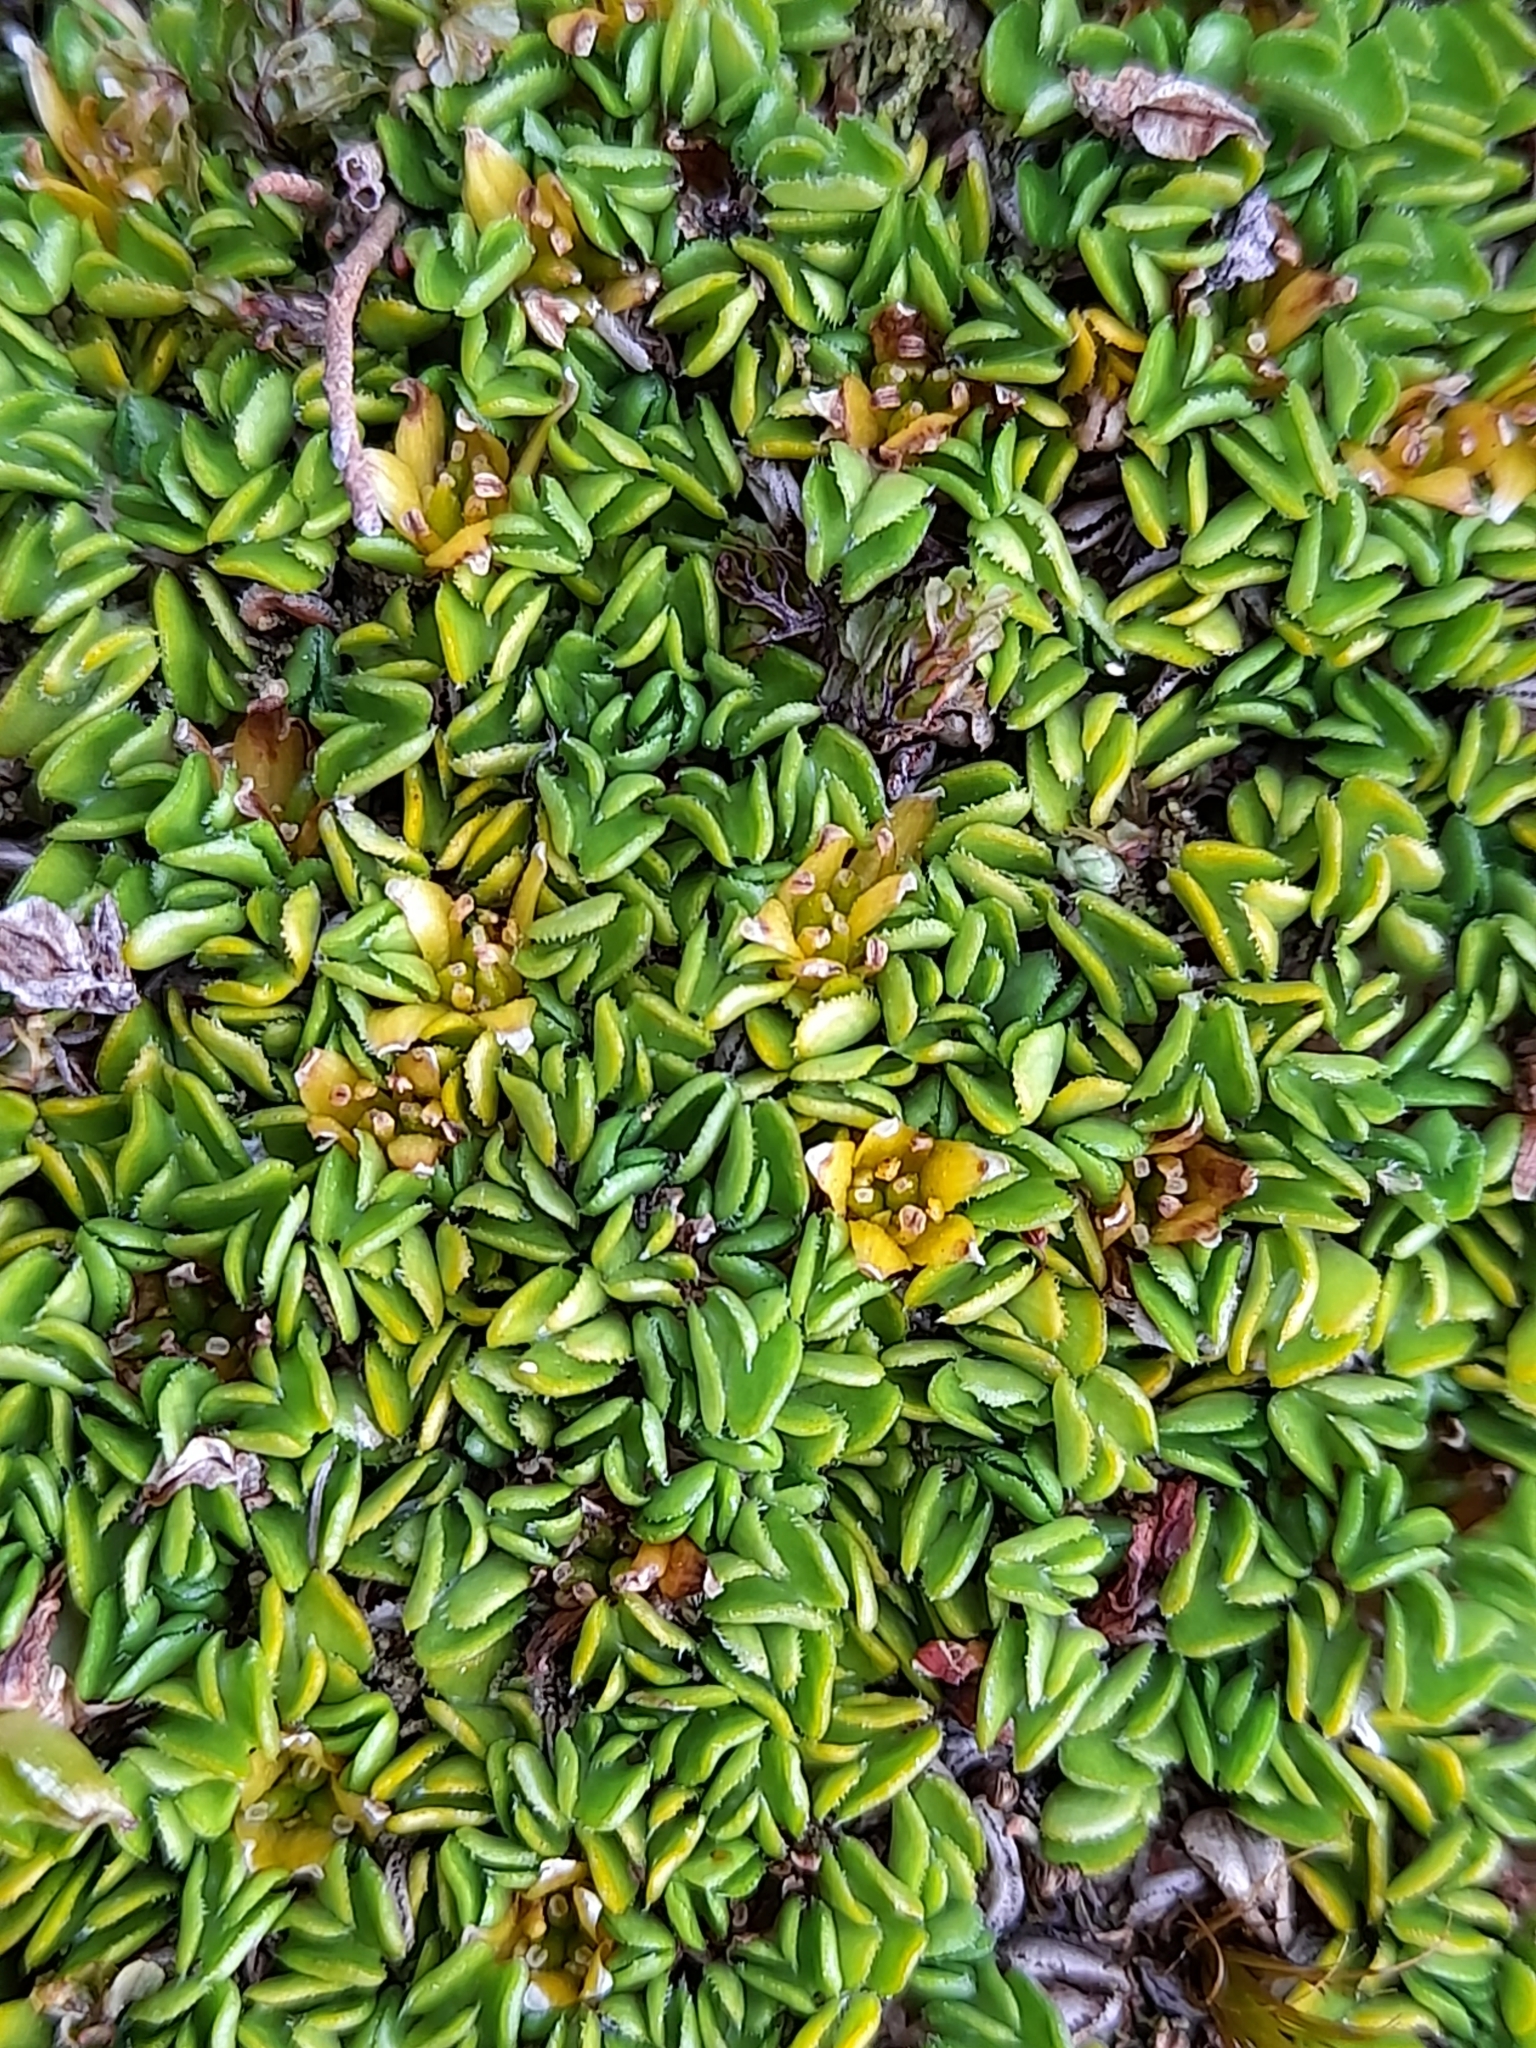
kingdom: Plantae
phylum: Tracheophyta
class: Magnoliopsida
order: Ranunculales
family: Ranunculaceae
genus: Caltha
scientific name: Caltha dionaeifolia
